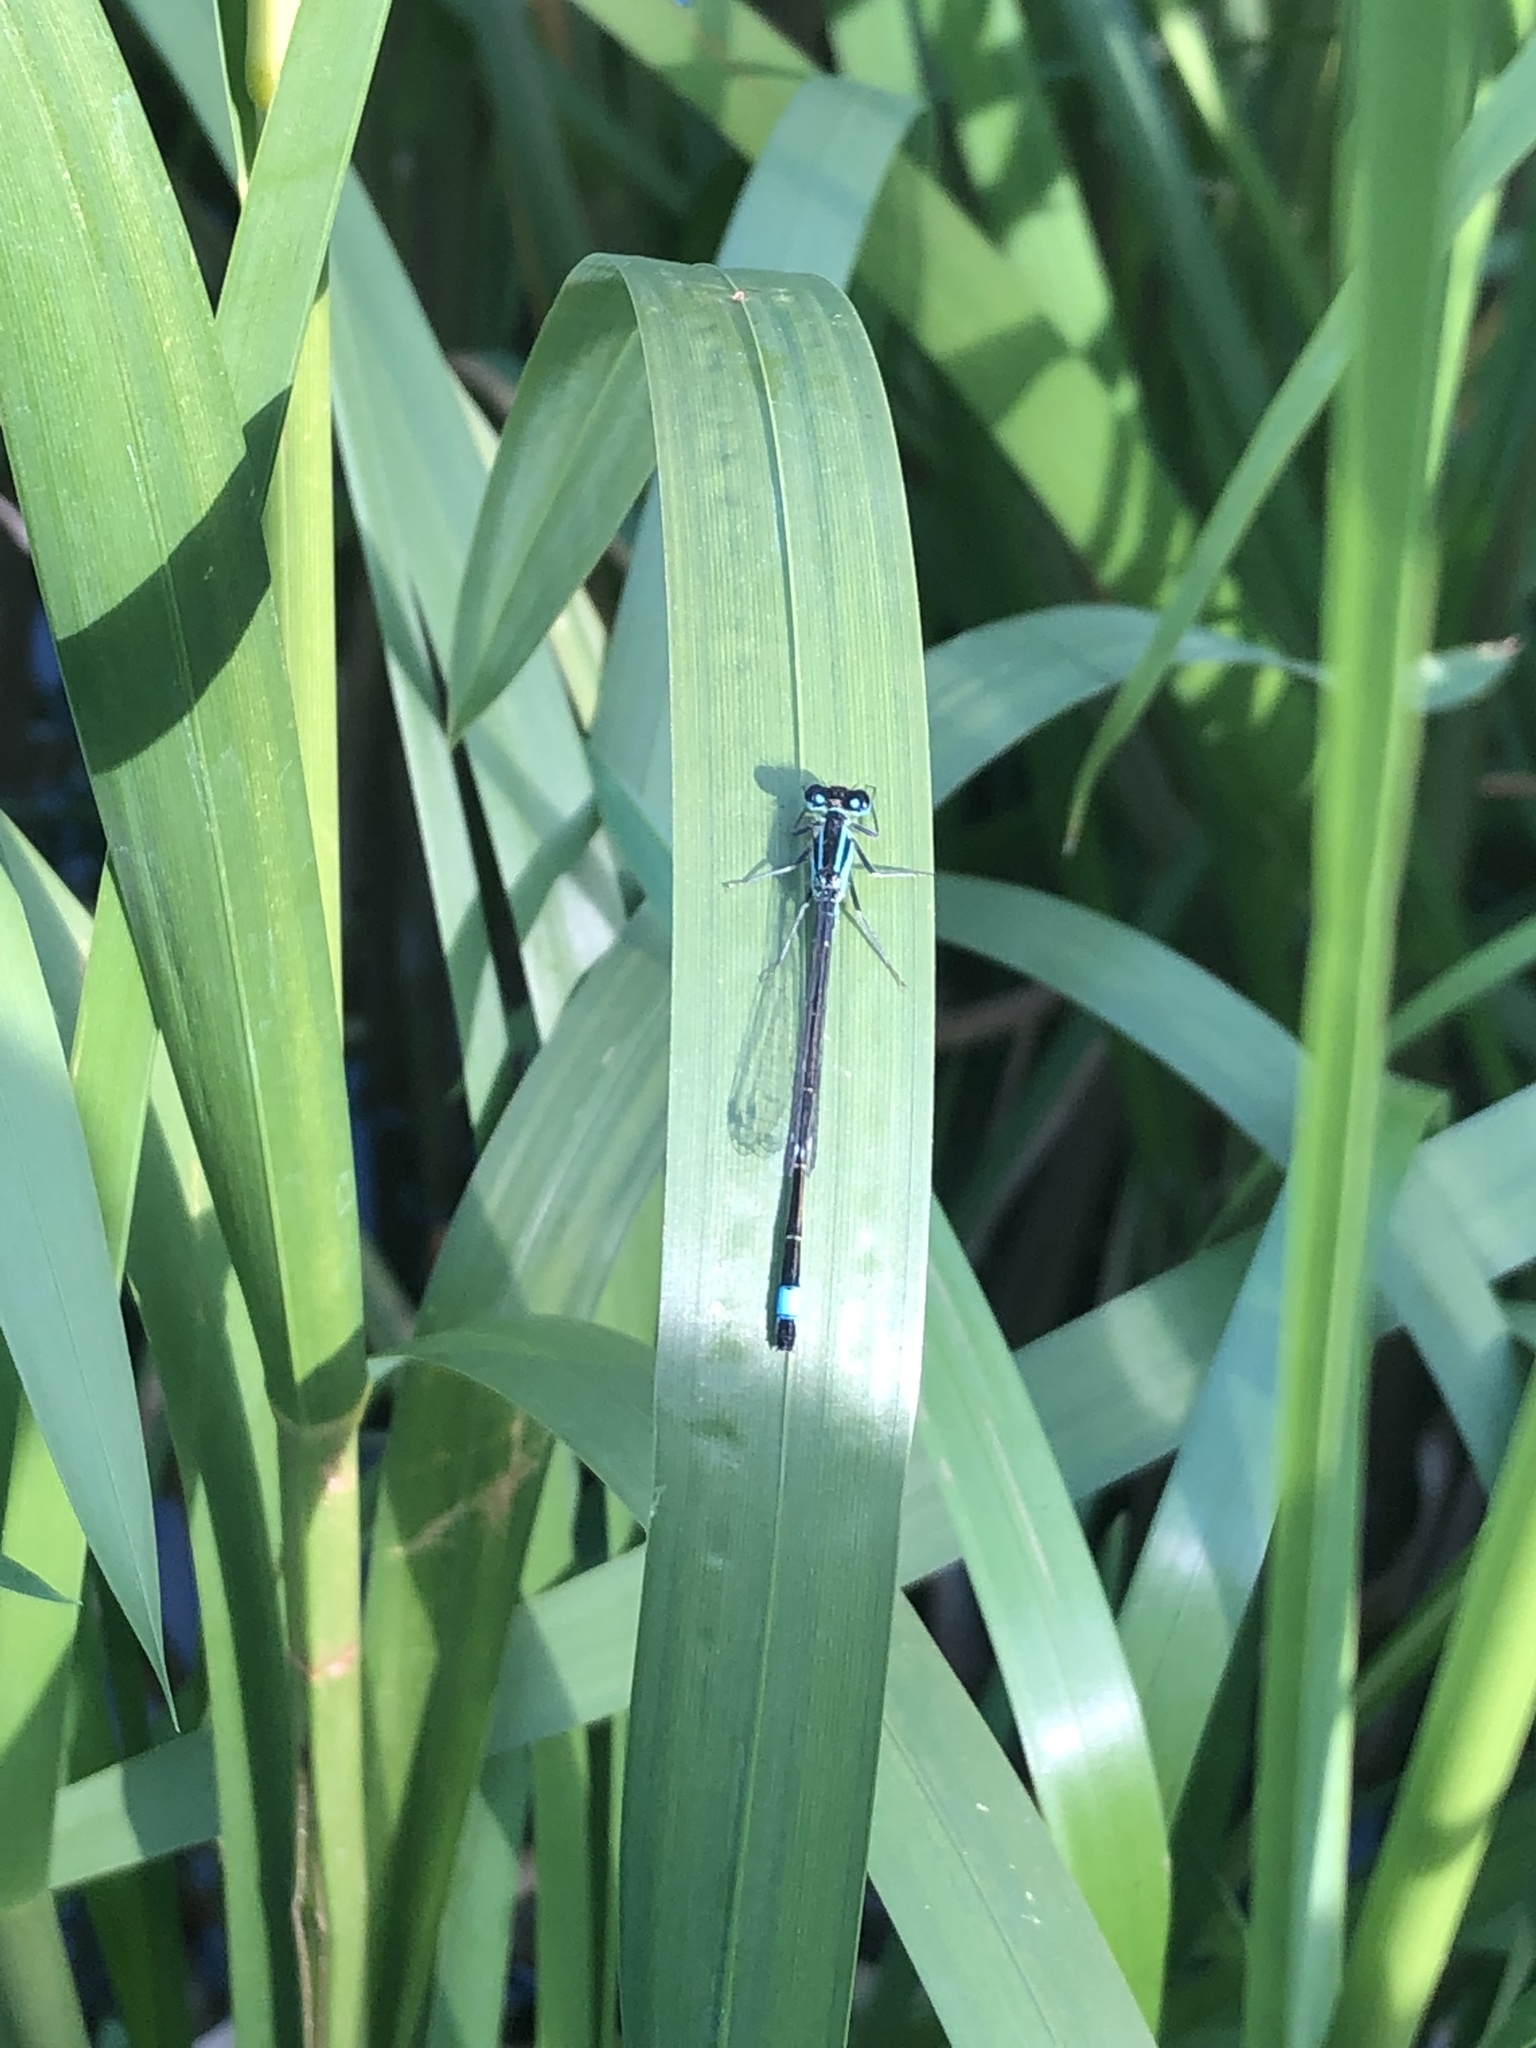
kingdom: Animalia
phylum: Arthropoda
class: Insecta
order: Odonata
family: Coenagrionidae
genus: Ischnura
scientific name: Ischnura elegans
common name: Blue-tailed damselfly
